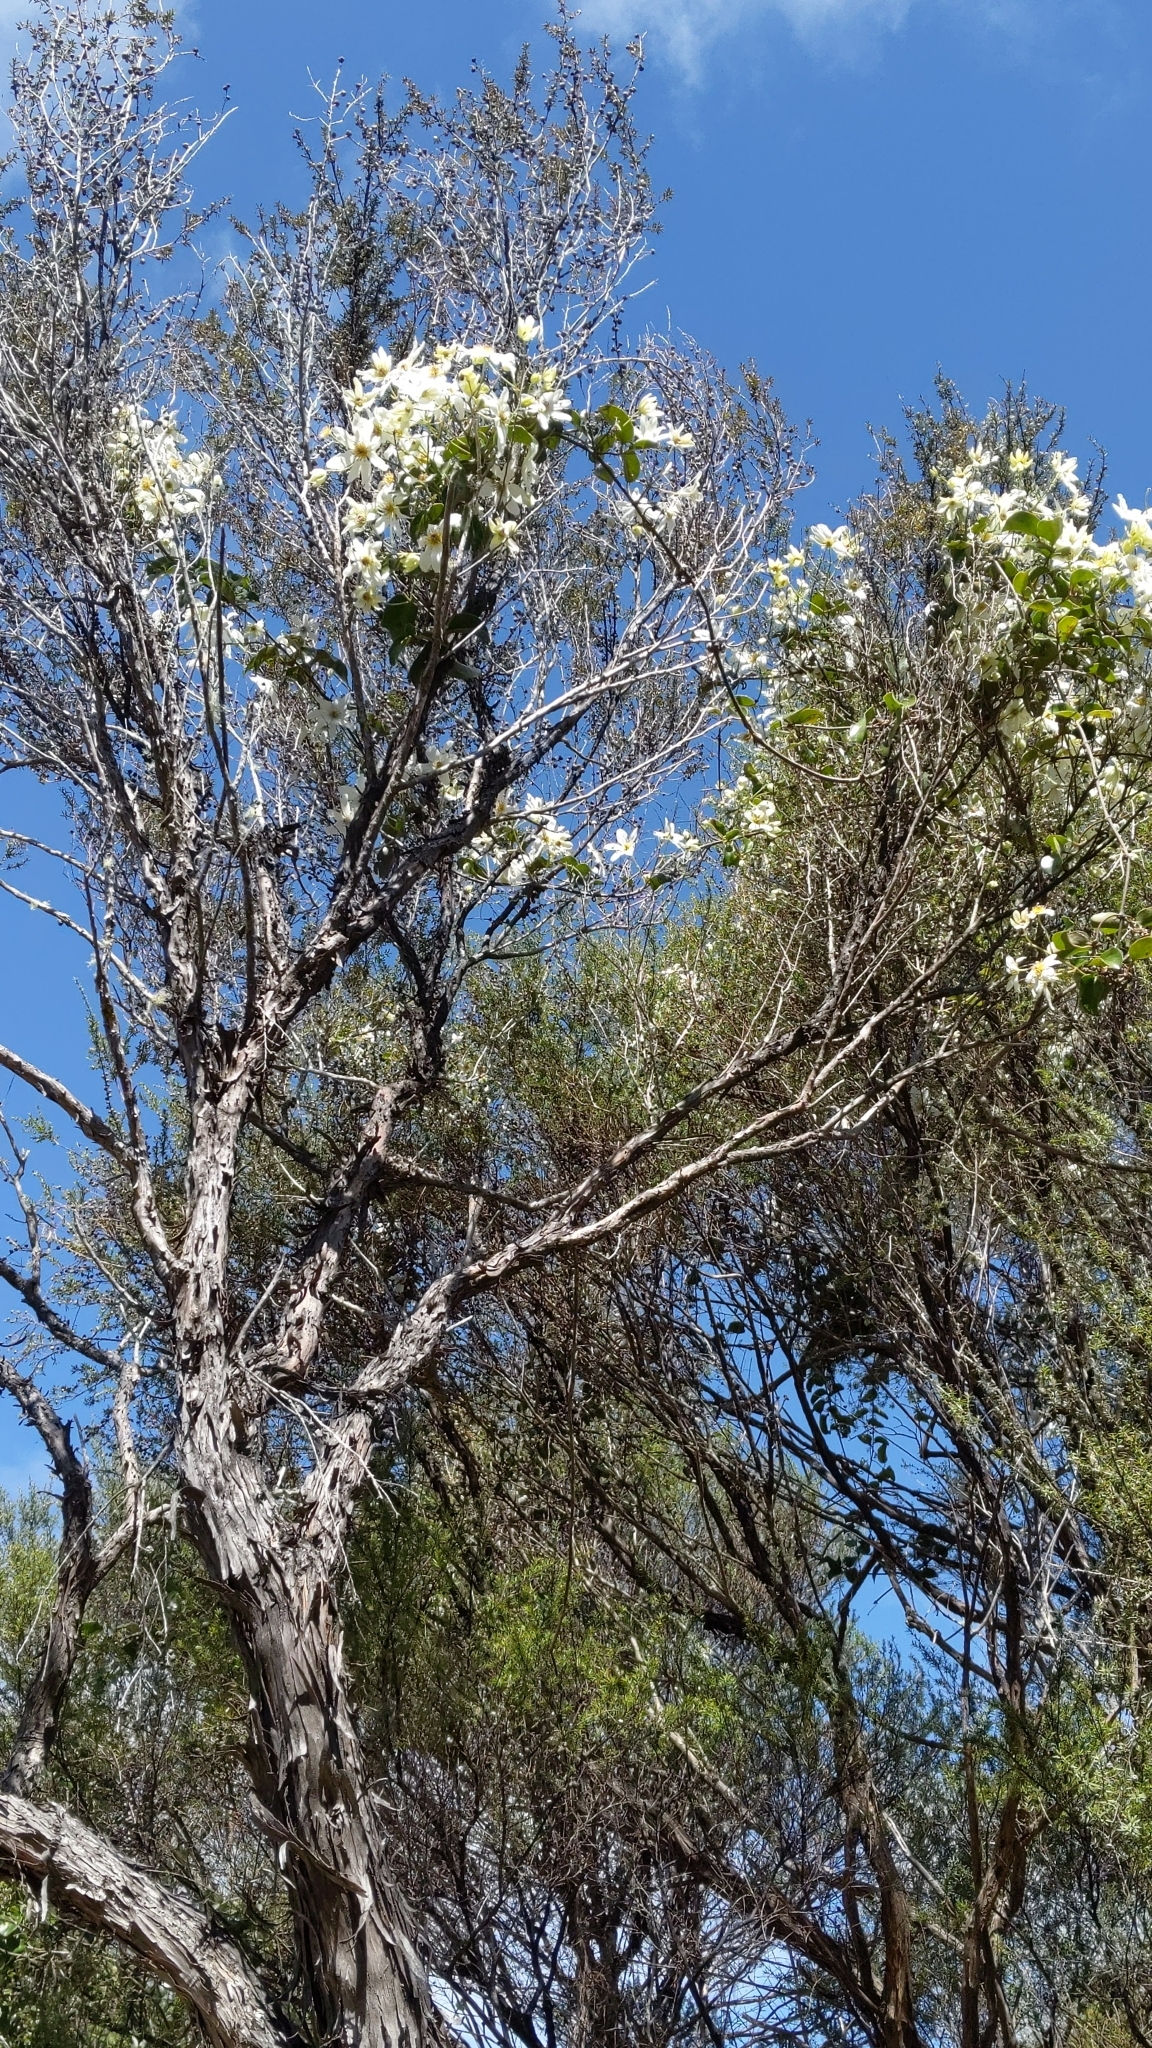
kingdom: Plantae
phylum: Tracheophyta
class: Magnoliopsida
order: Ranunculales
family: Ranunculaceae
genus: Clematis
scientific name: Clematis paniculata
